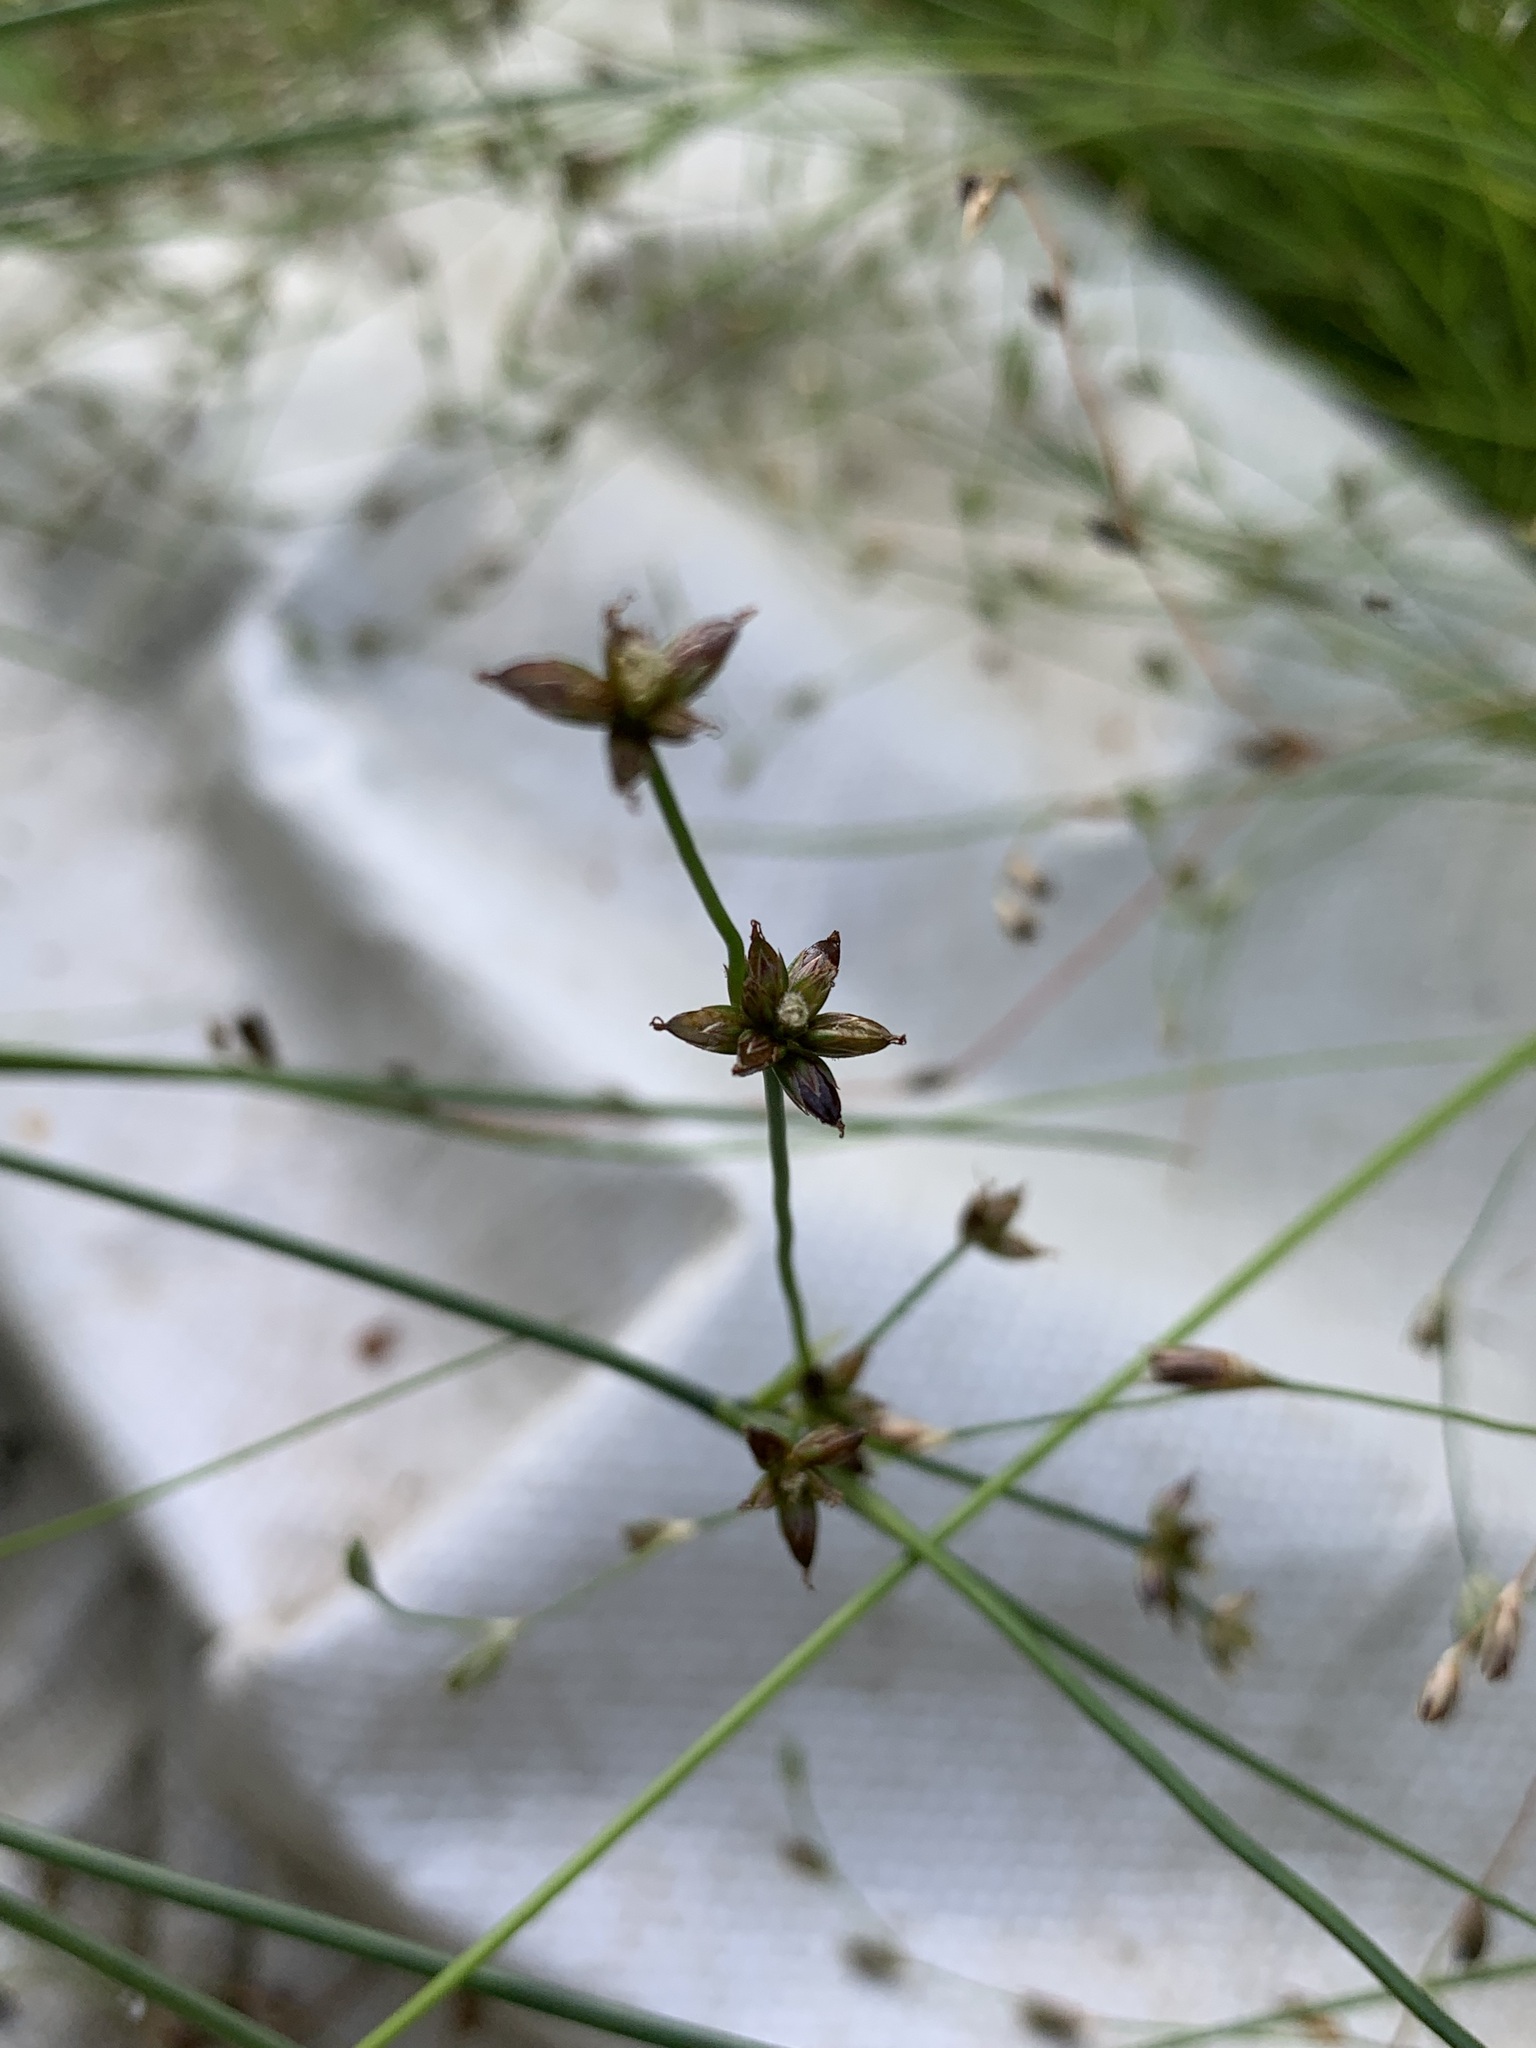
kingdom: Plantae
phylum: Tracheophyta
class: Liliopsida
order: Poales
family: Juncaceae
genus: Juncus
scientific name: Juncus articulatus
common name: Jointed rush
